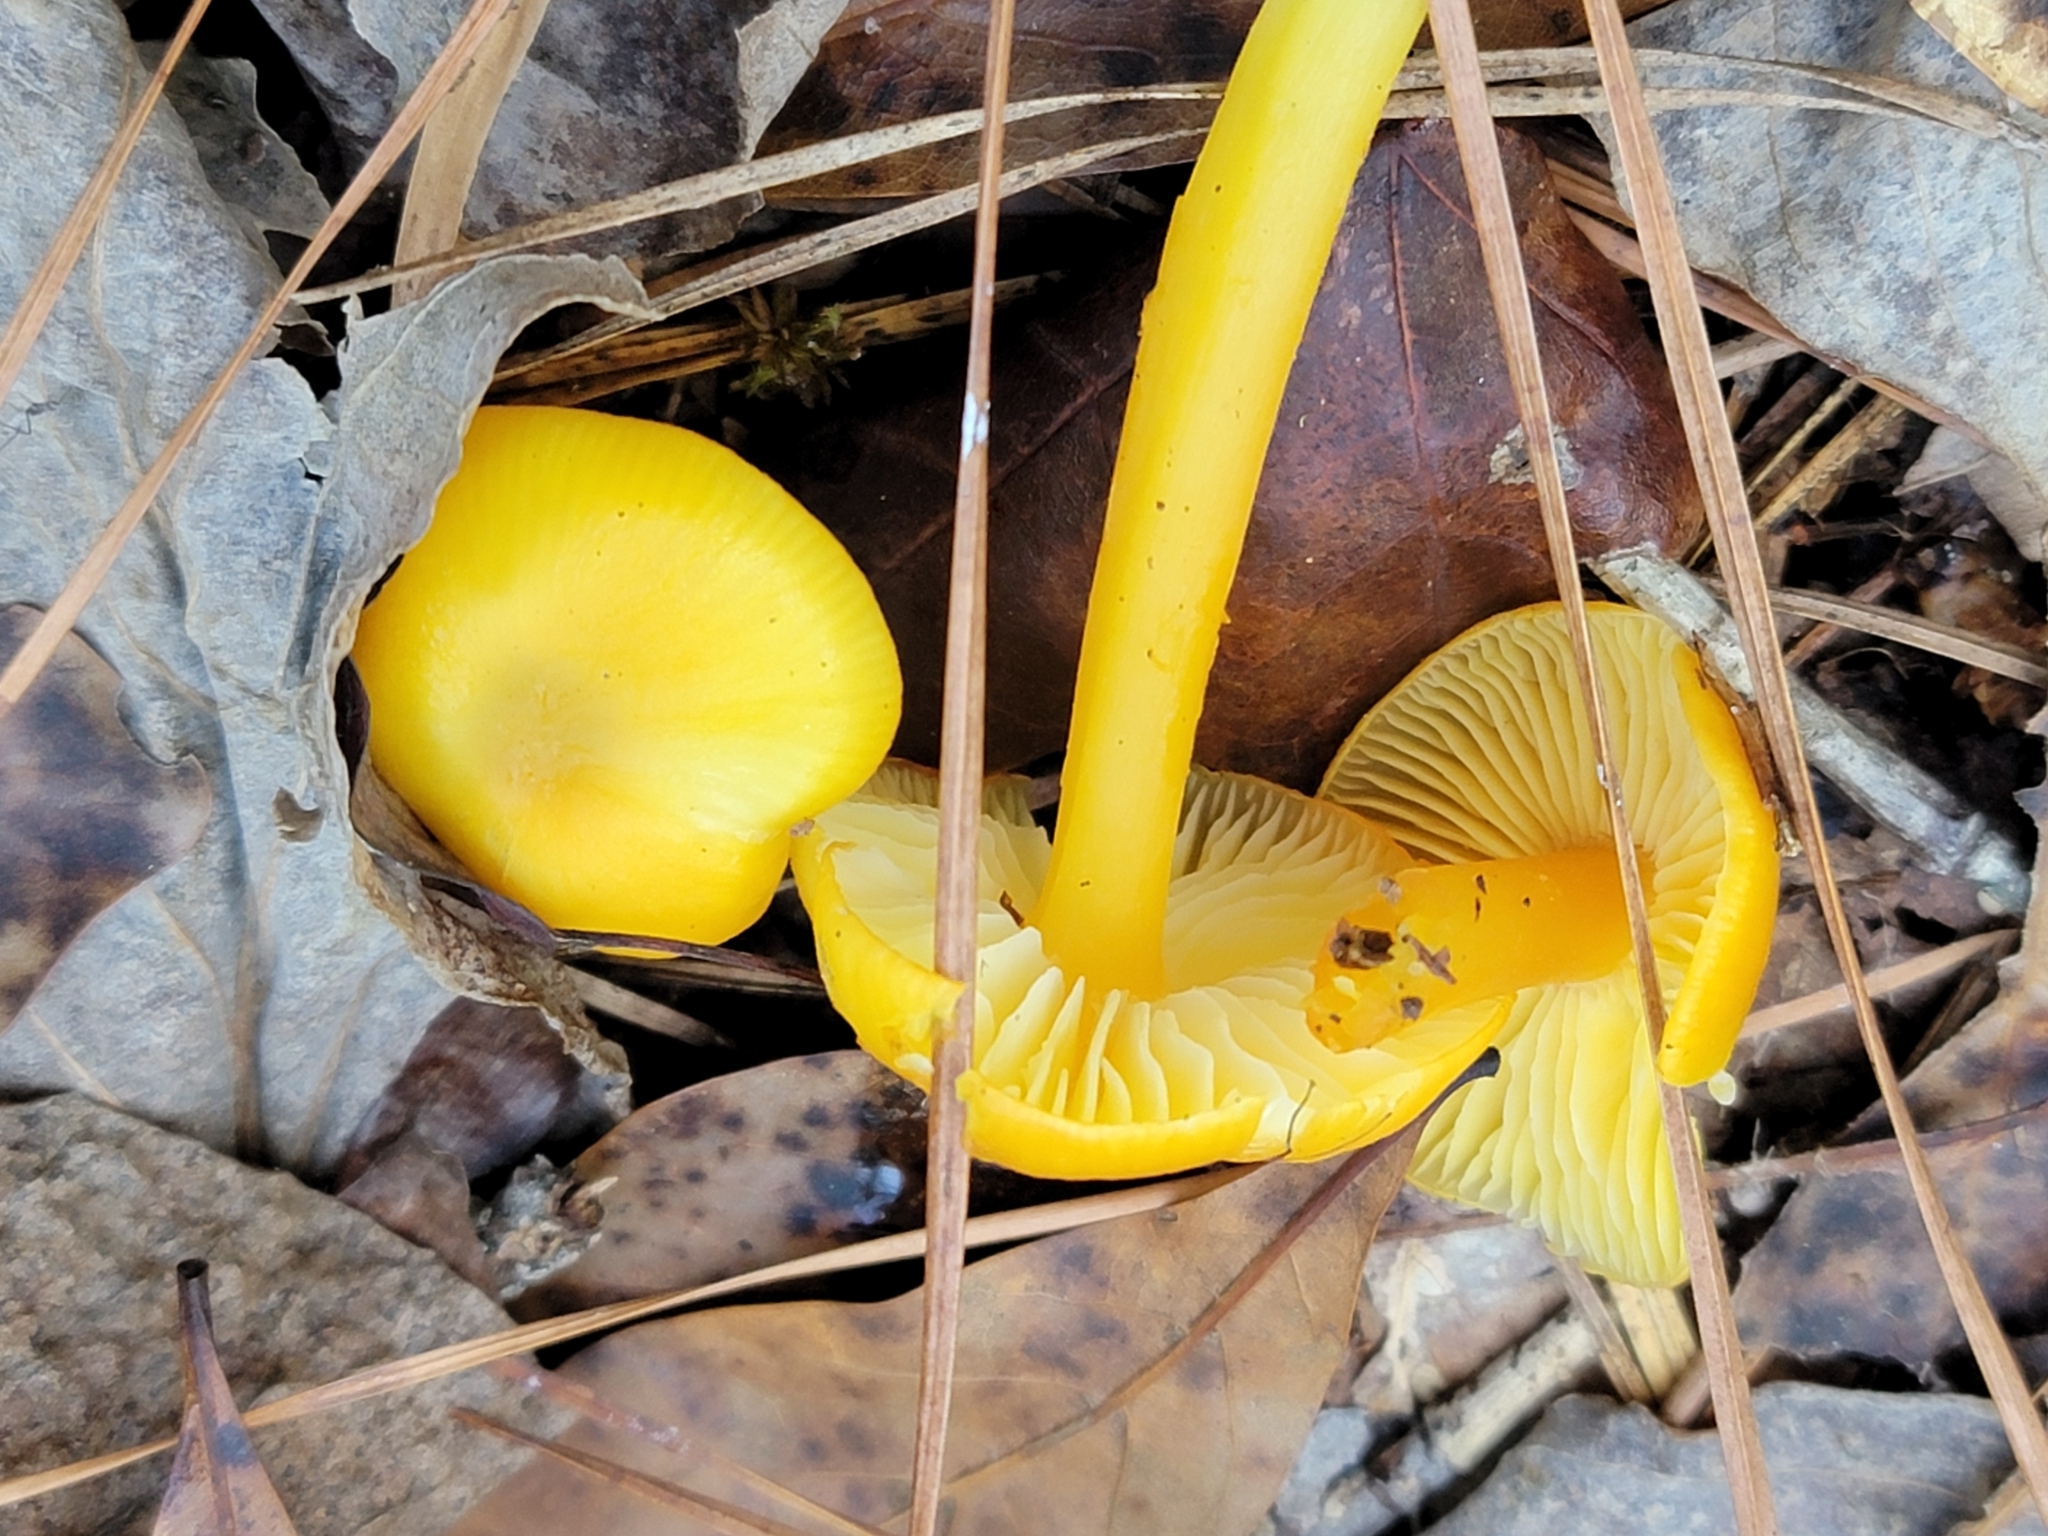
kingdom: Fungi
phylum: Basidiomycota
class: Agaricomycetes
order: Agaricales
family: Hygrophoraceae
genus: Hygrocybe
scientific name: Hygrocybe flavescens
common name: Golden waxy cap
